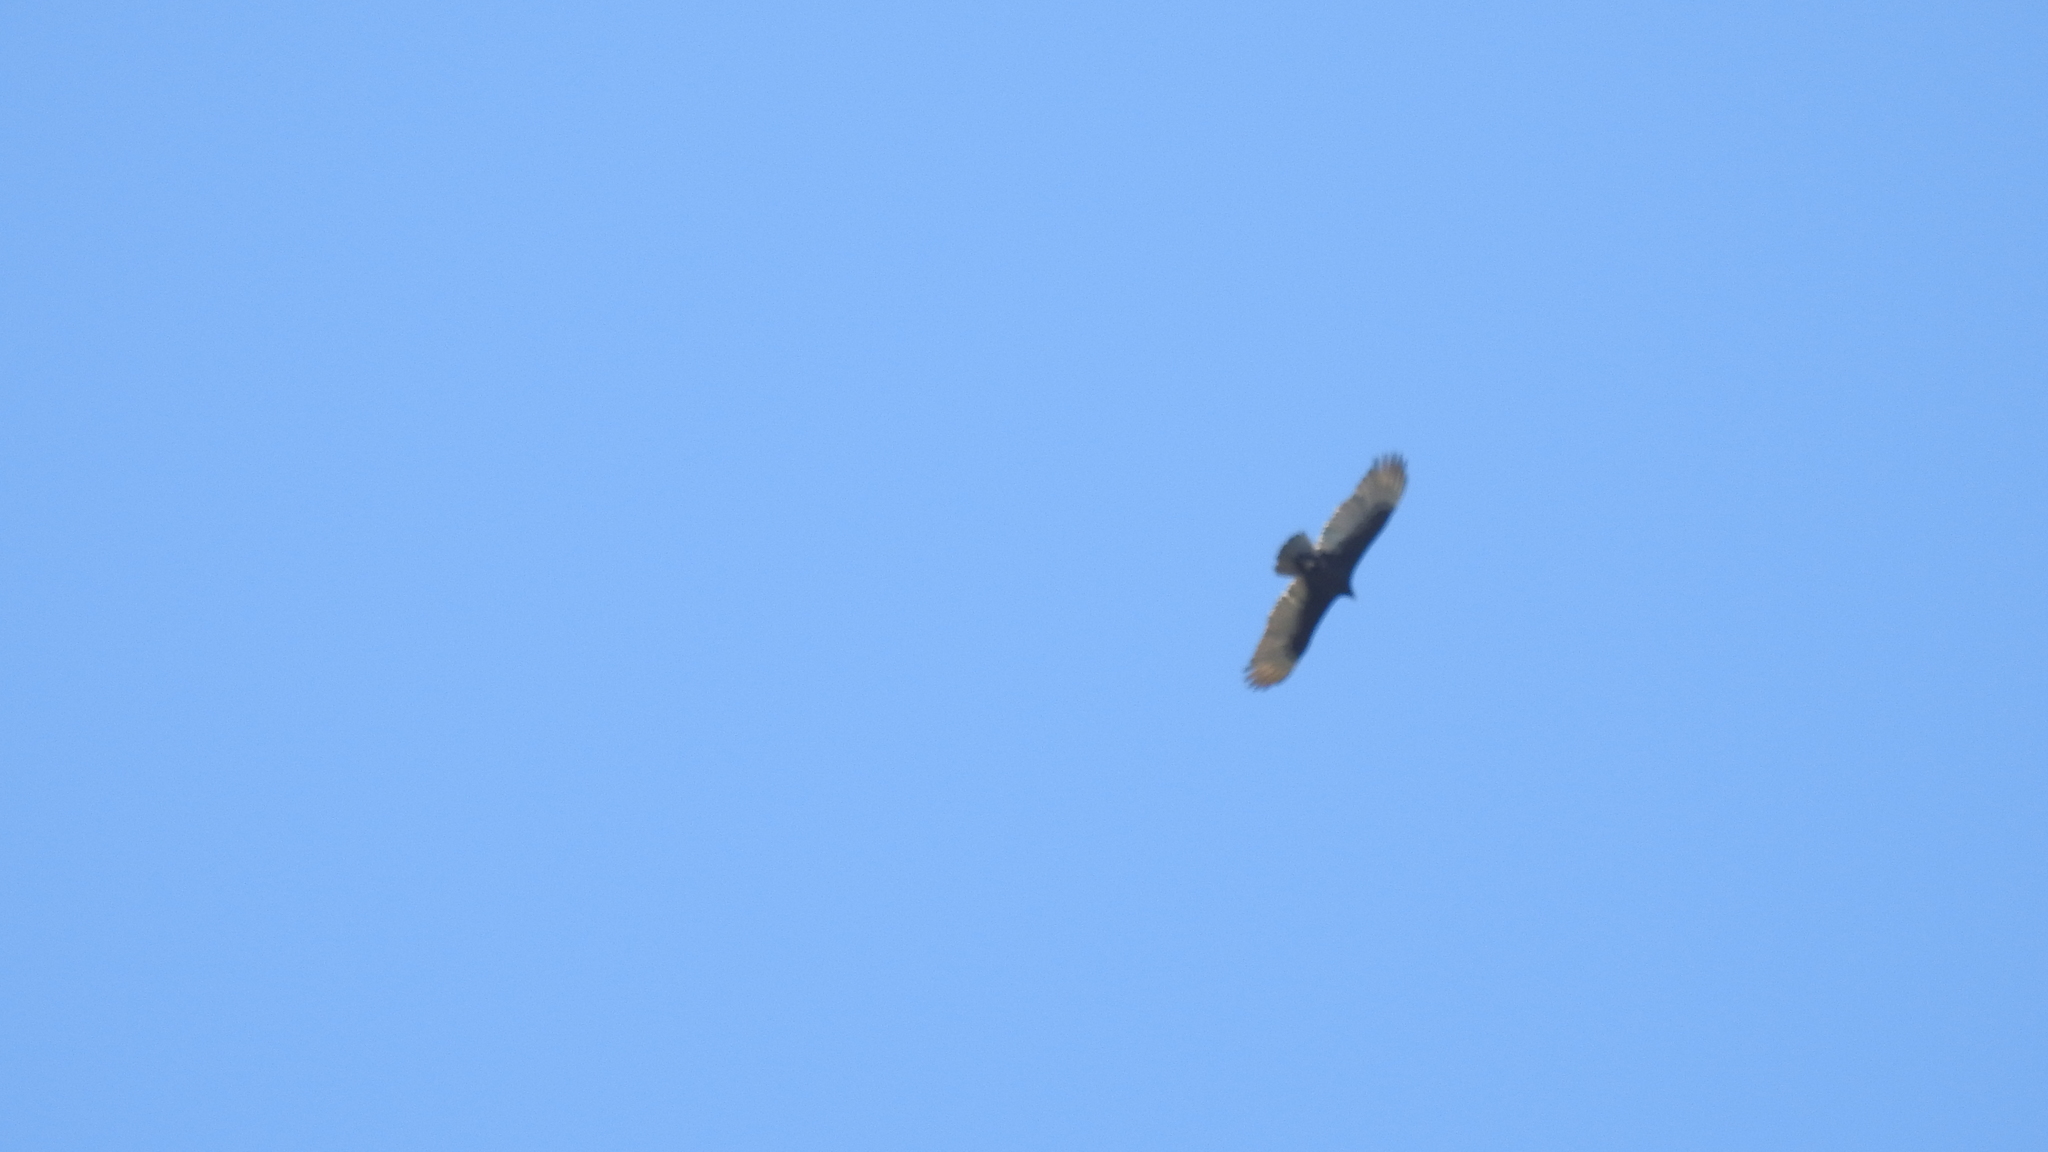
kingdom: Animalia
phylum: Chordata
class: Aves
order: Accipitriformes
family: Cathartidae
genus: Cathartes
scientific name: Cathartes aura
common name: Turkey vulture
